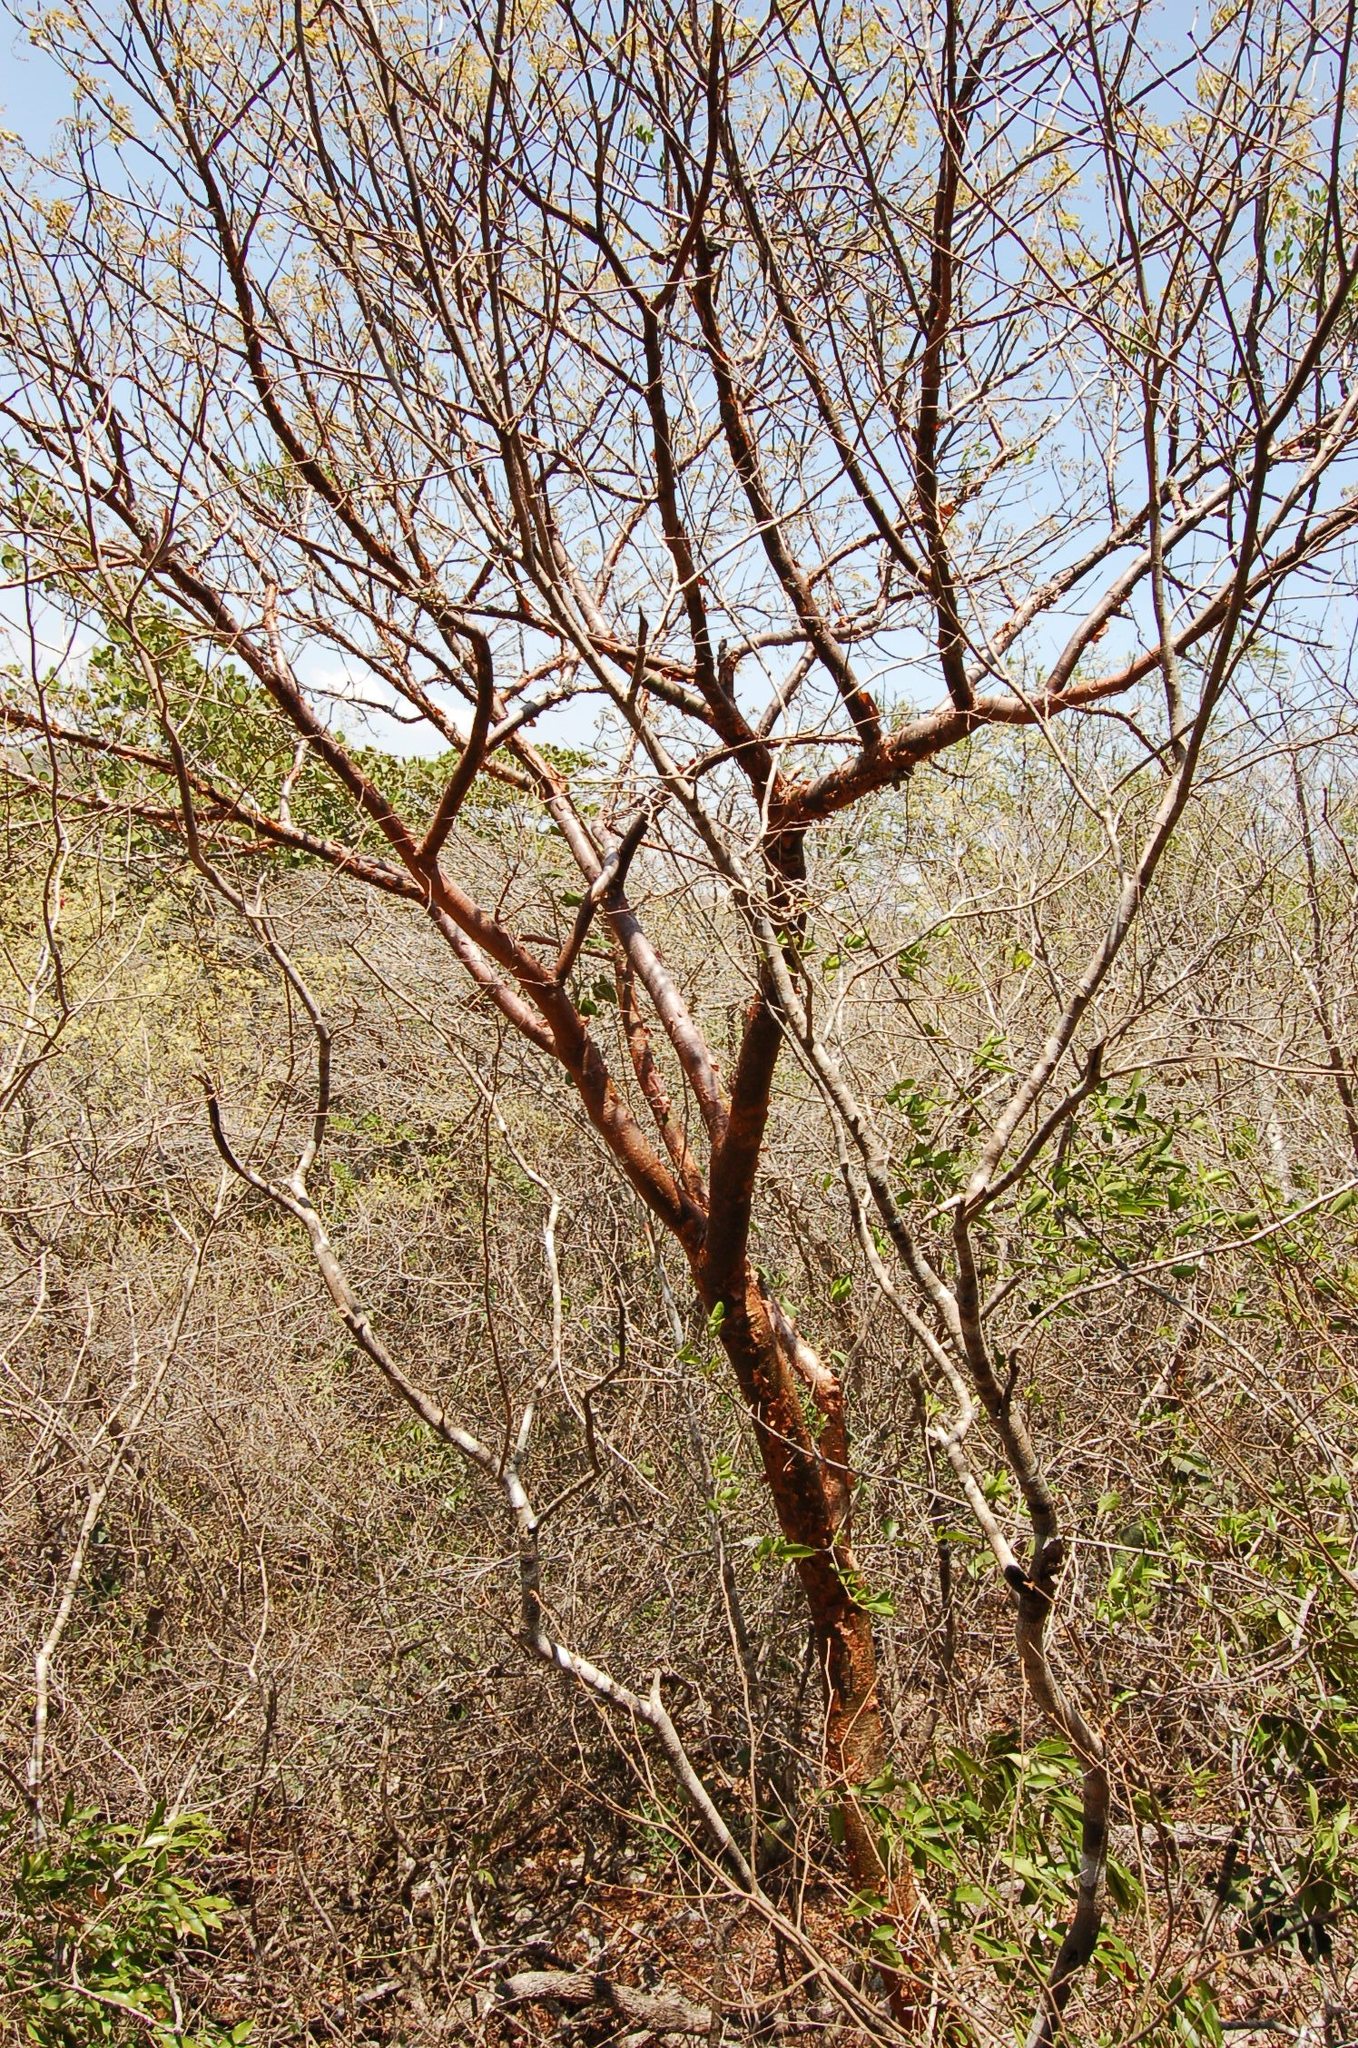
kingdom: Plantae
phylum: Tracheophyta
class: Magnoliopsida
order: Sapindales
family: Burseraceae
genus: Bursera
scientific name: Bursera simaruba
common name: Turpentine tree
